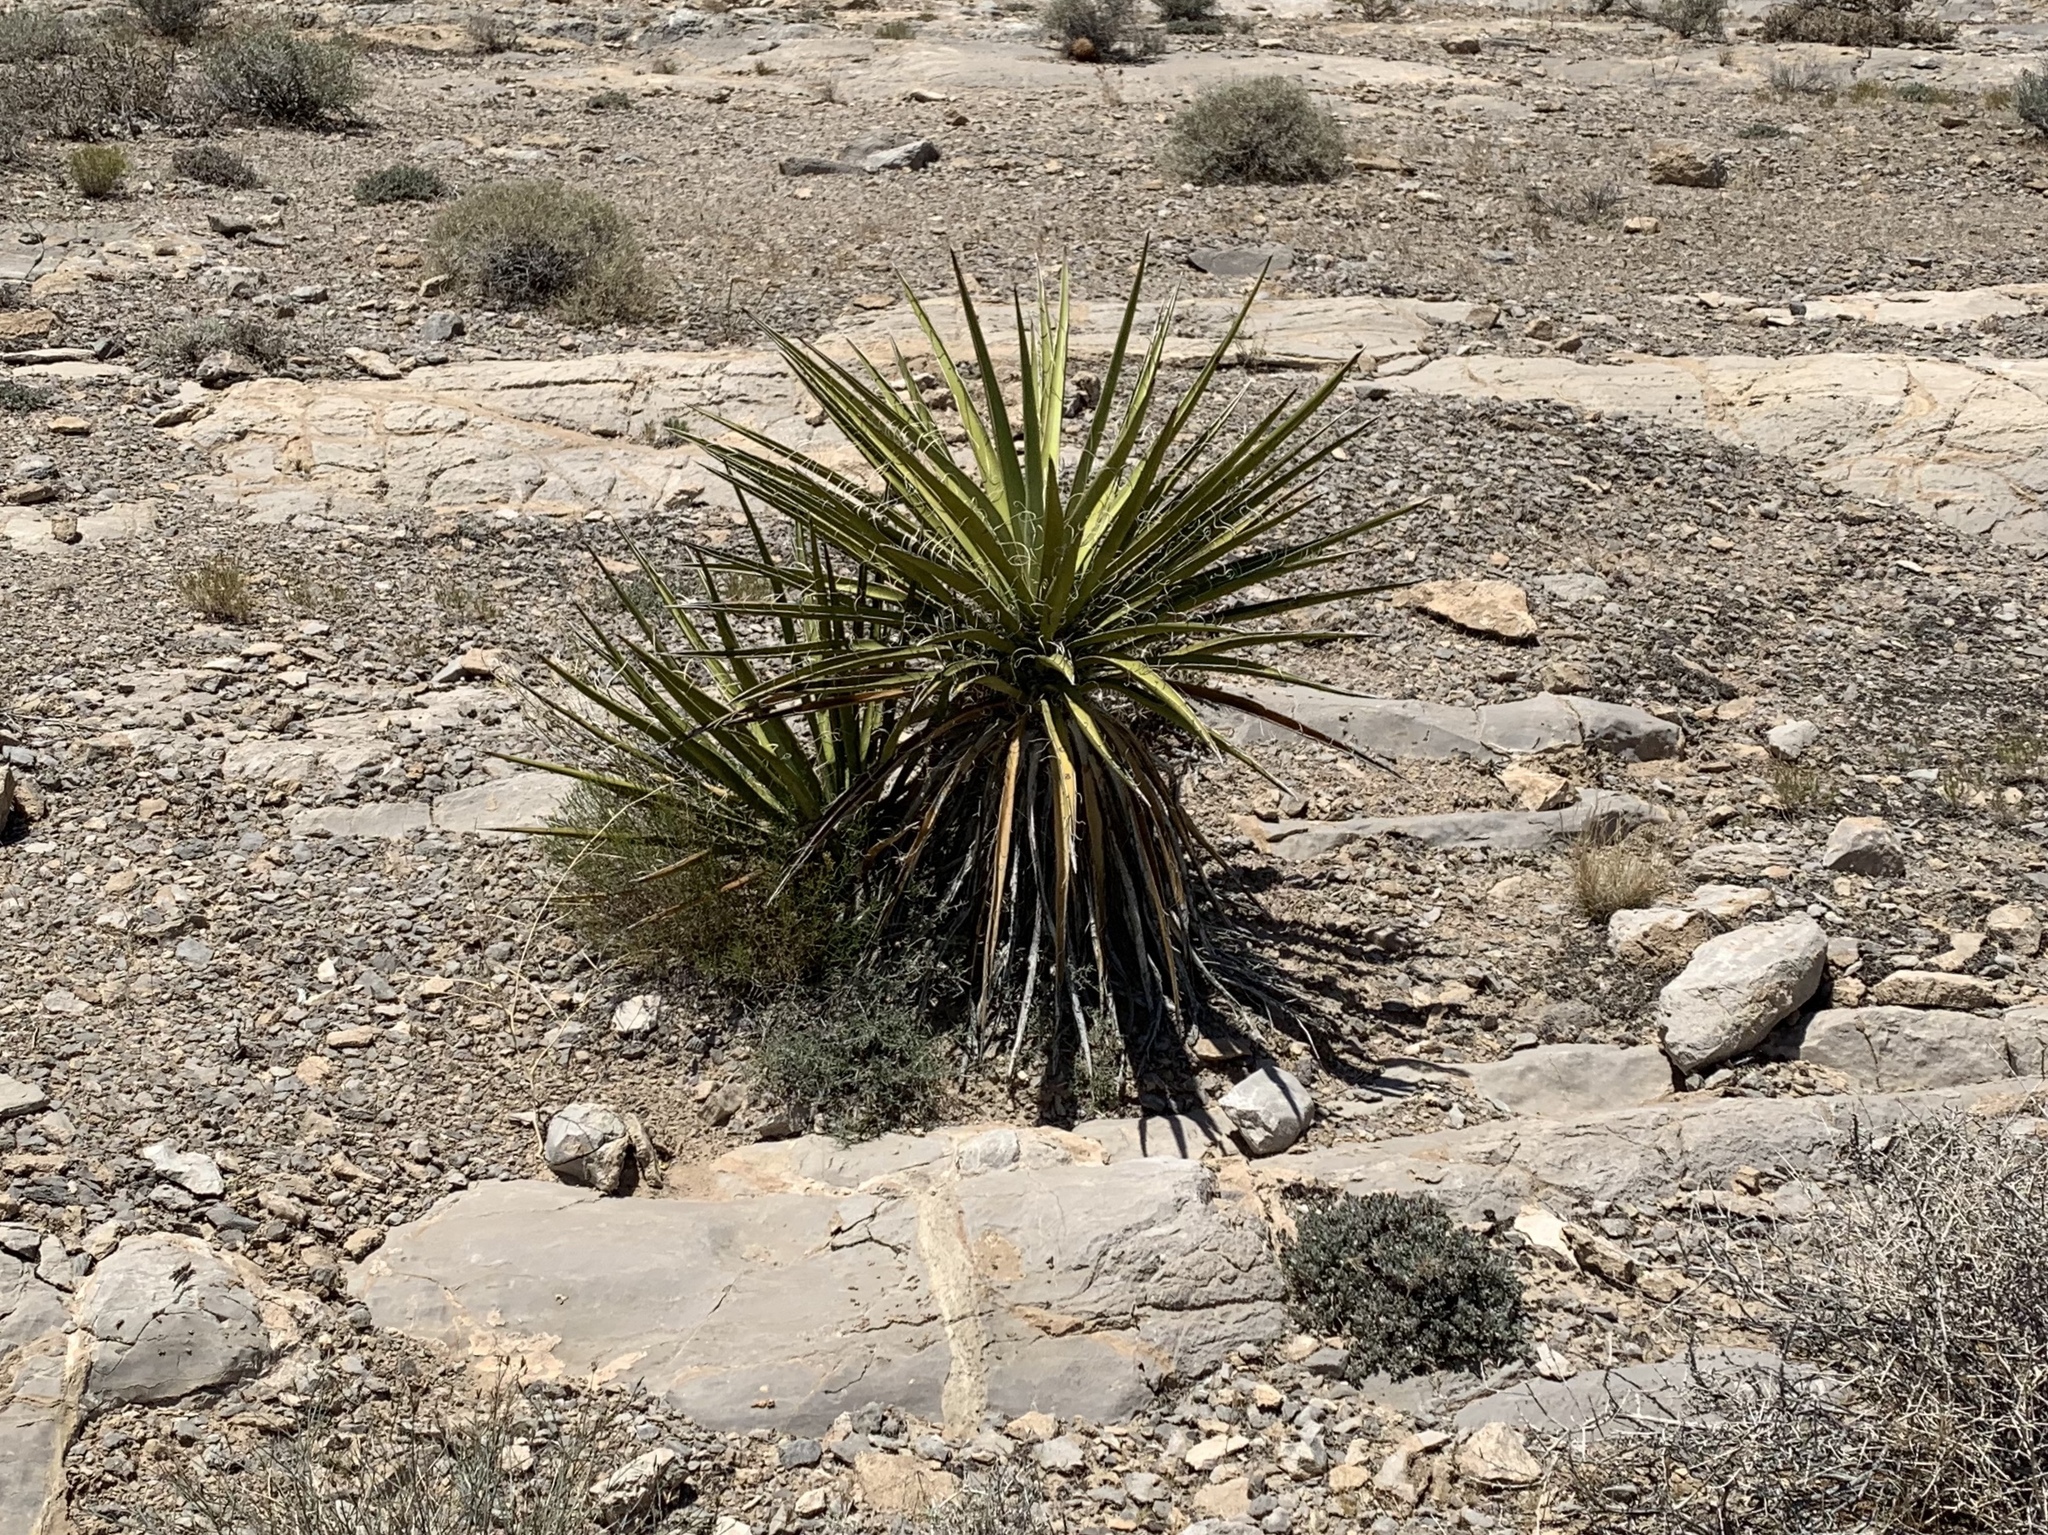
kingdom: Plantae
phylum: Tracheophyta
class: Liliopsida
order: Asparagales
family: Asparagaceae
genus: Yucca
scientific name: Yucca schidigera
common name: Mojave yucca
